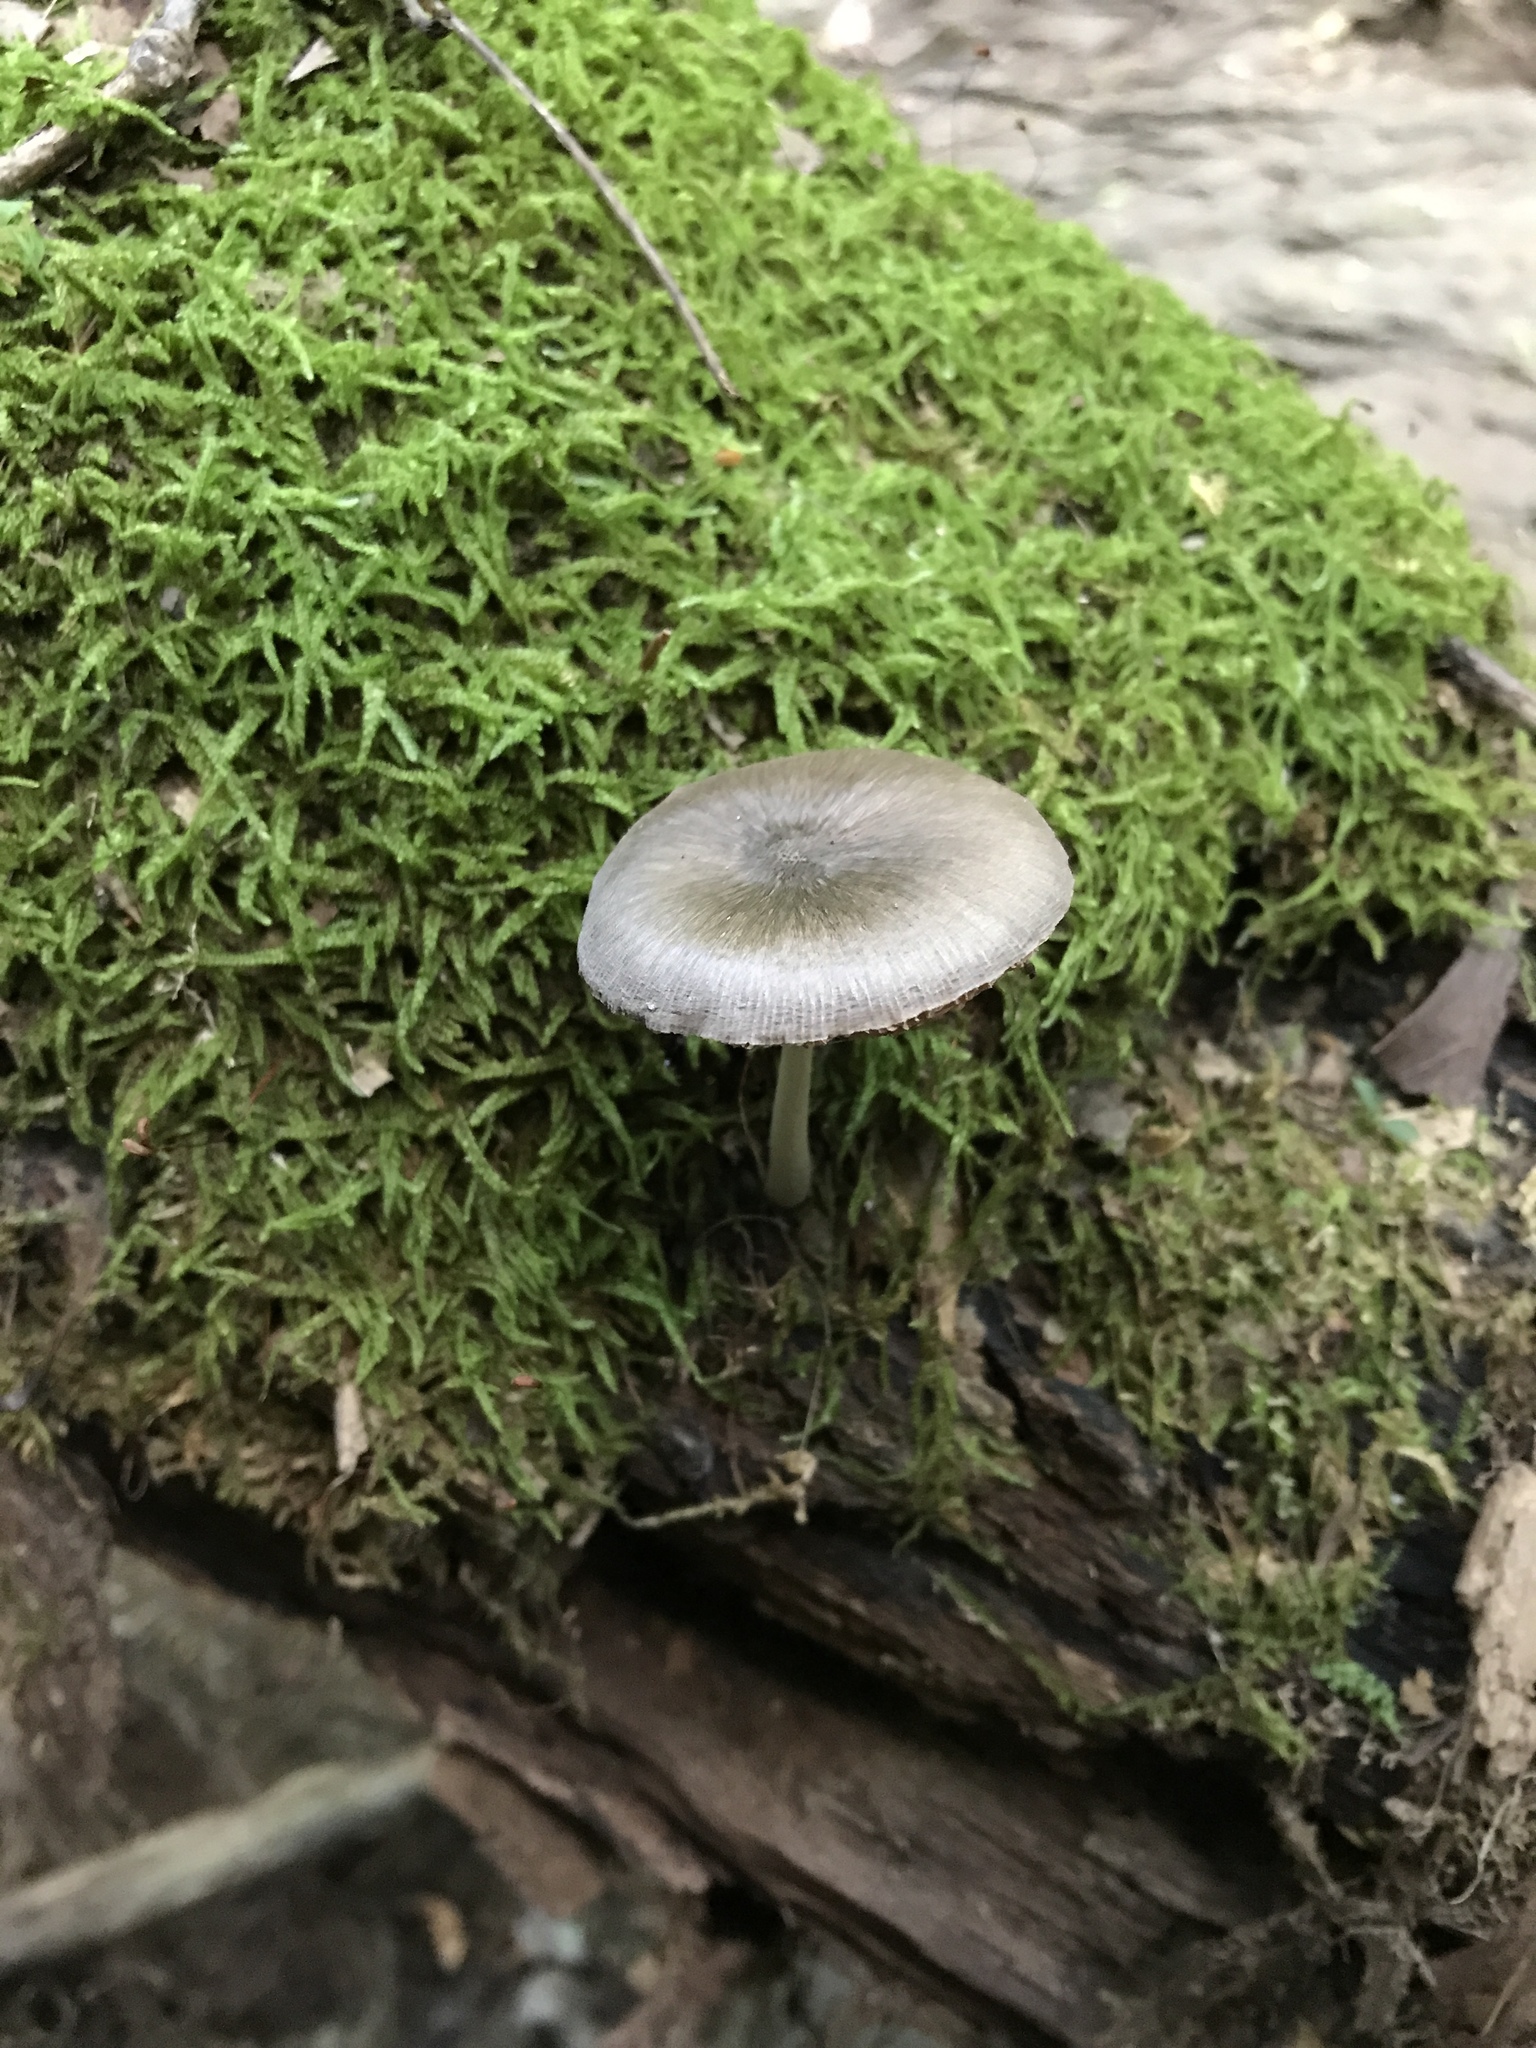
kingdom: Fungi
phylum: Basidiomycota
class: Agaricomycetes
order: Agaricales
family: Pluteaceae
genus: Pluteus
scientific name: Pluteus americanus
